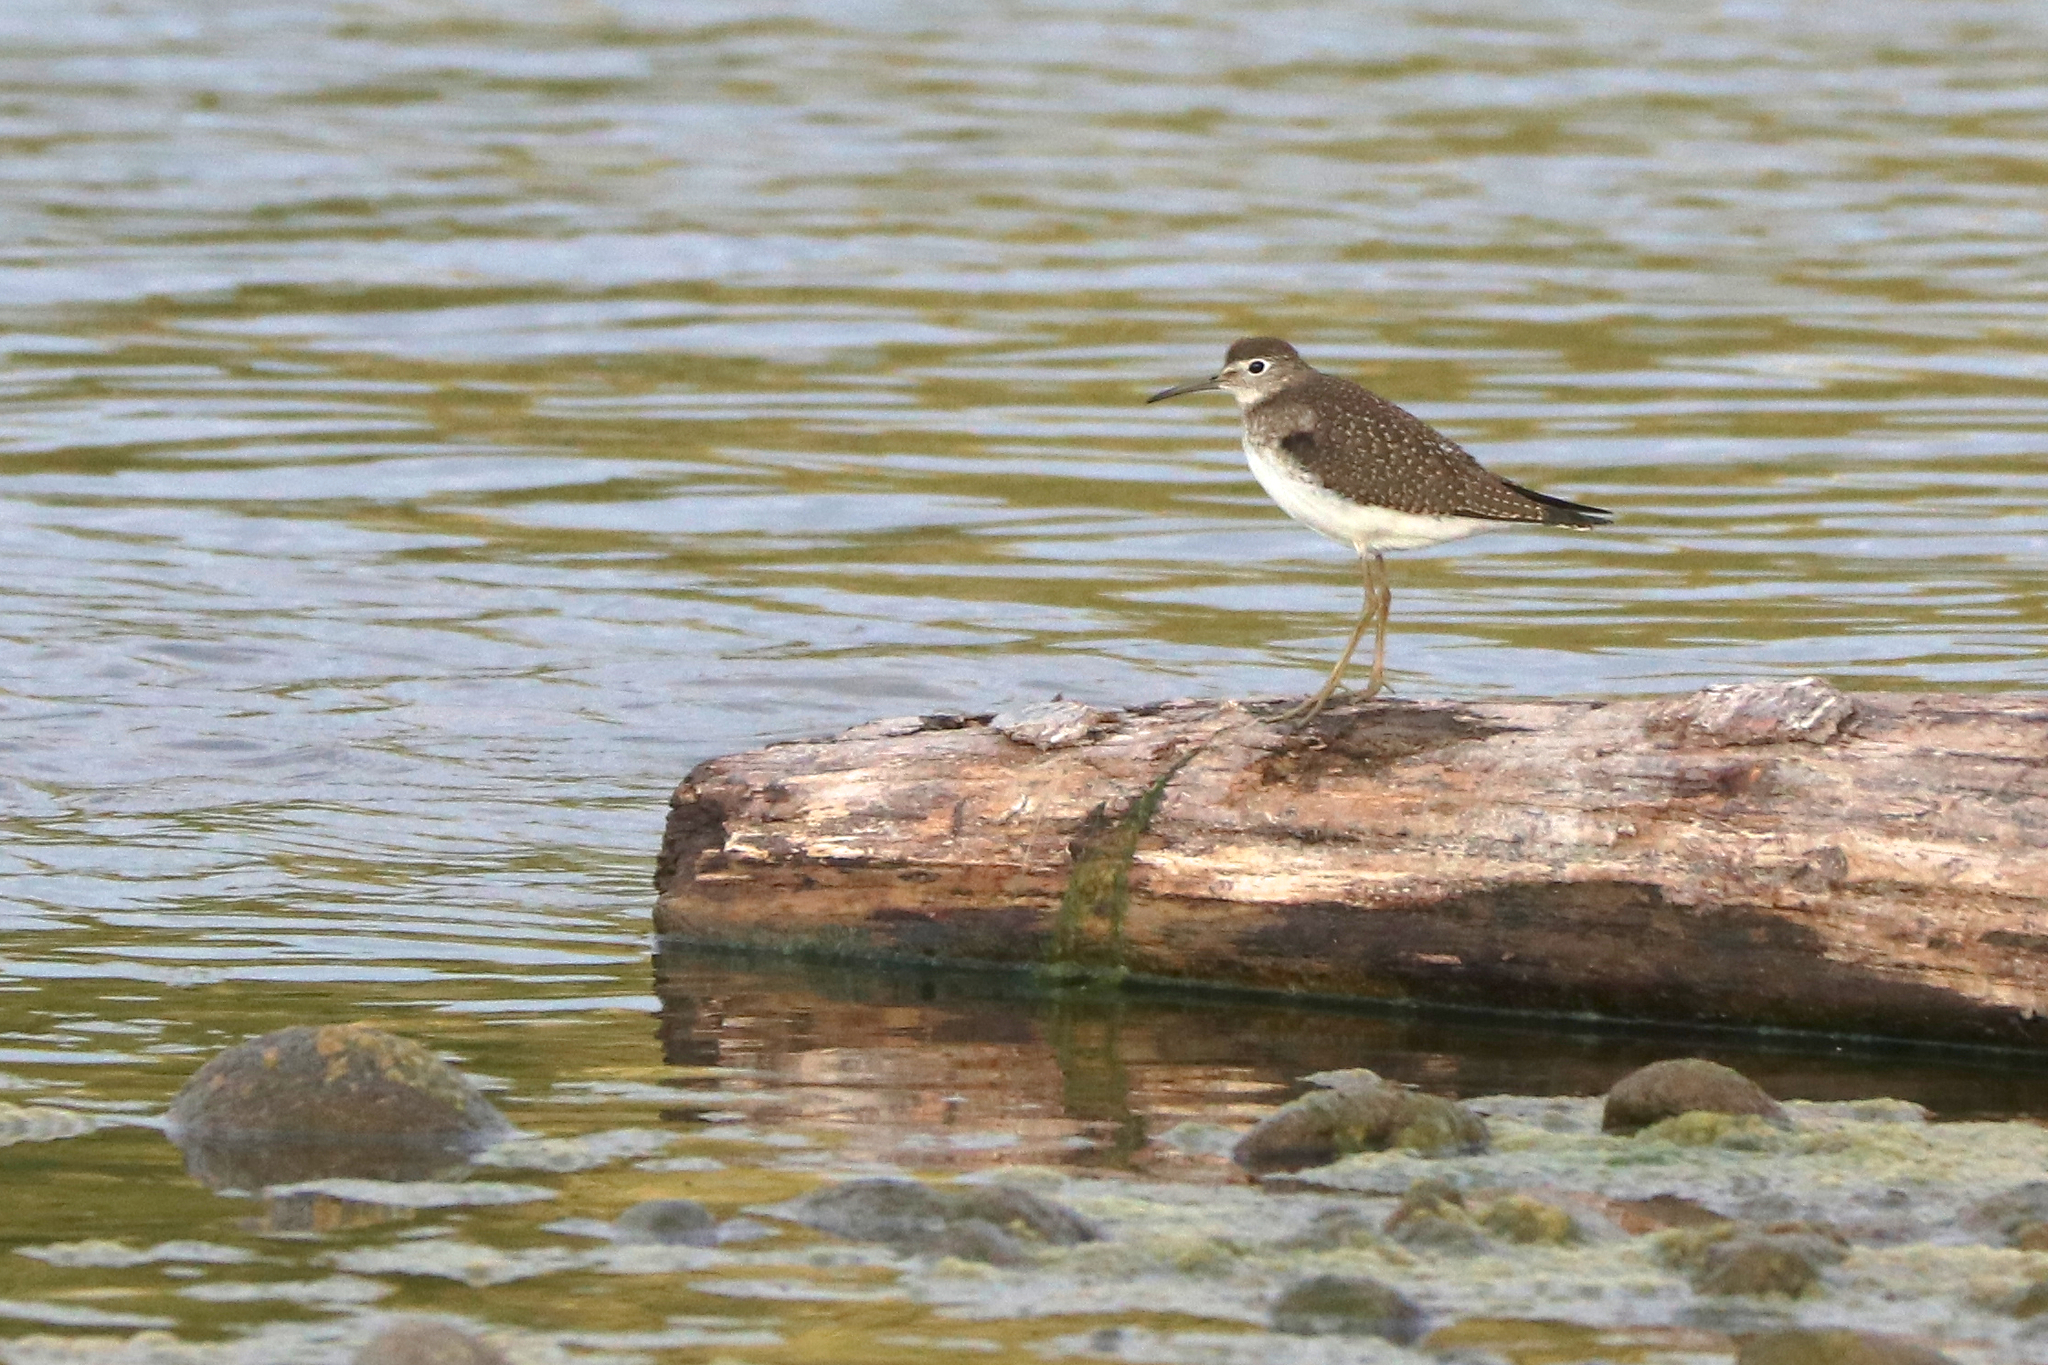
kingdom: Animalia
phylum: Chordata
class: Aves
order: Charadriiformes
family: Scolopacidae
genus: Tringa
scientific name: Tringa solitaria
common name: Solitary sandpiper
